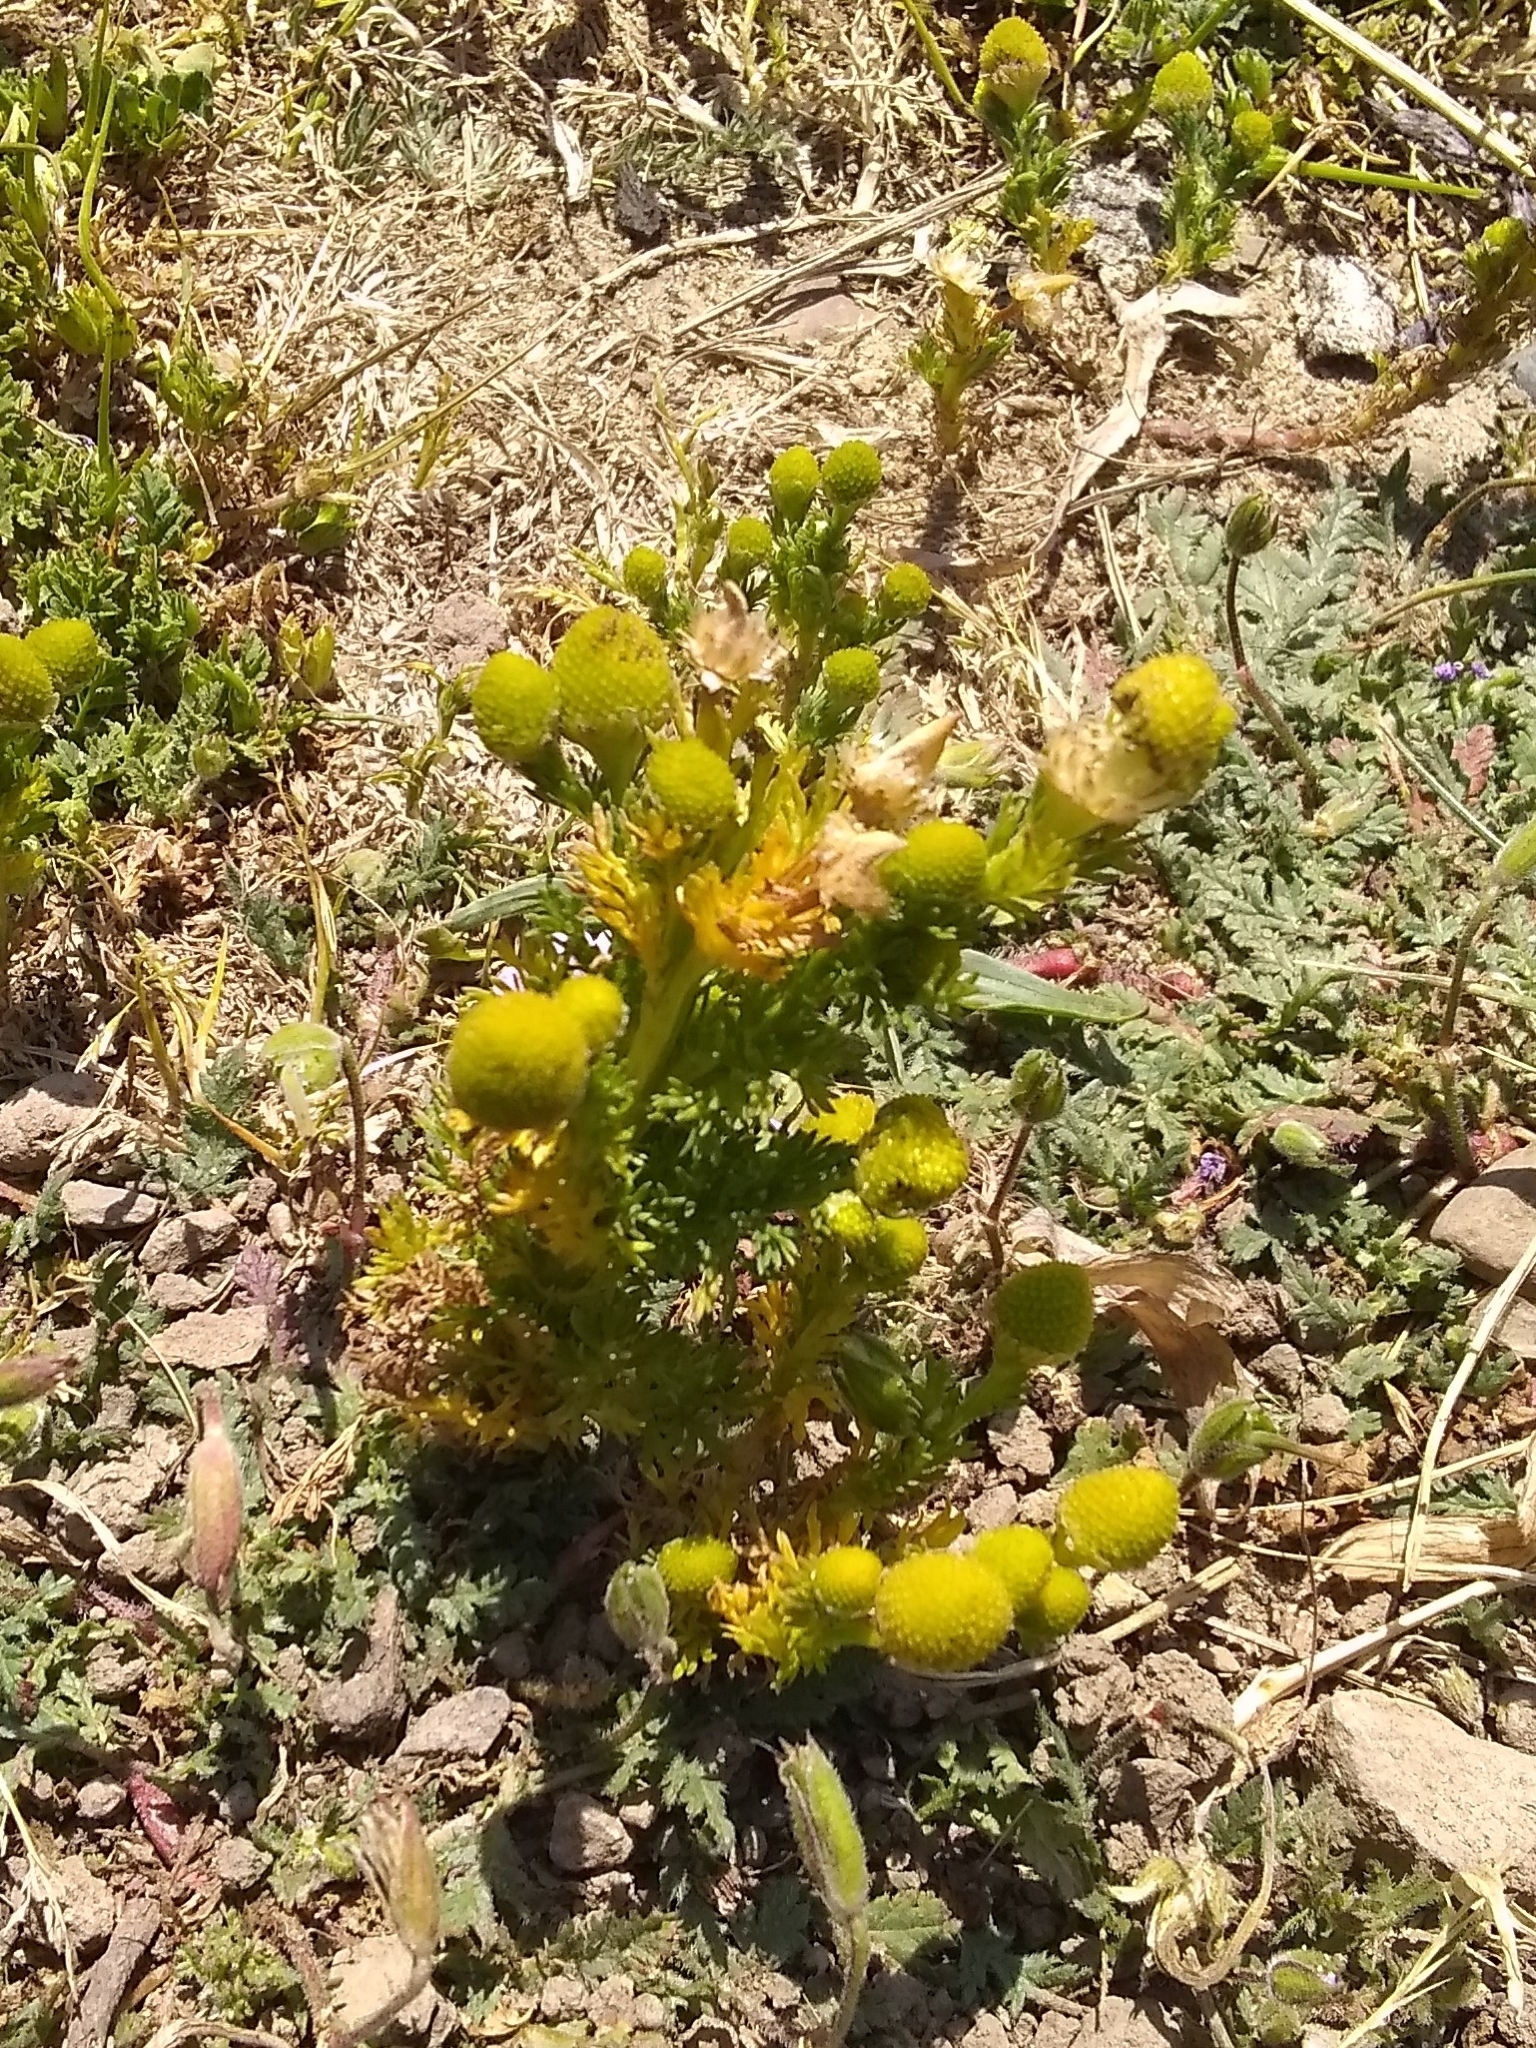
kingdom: Plantae
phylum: Tracheophyta
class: Magnoliopsida
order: Asterales
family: Asteraceae
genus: Matricaria
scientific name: Matricaria discoidea
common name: Disc mayweed
